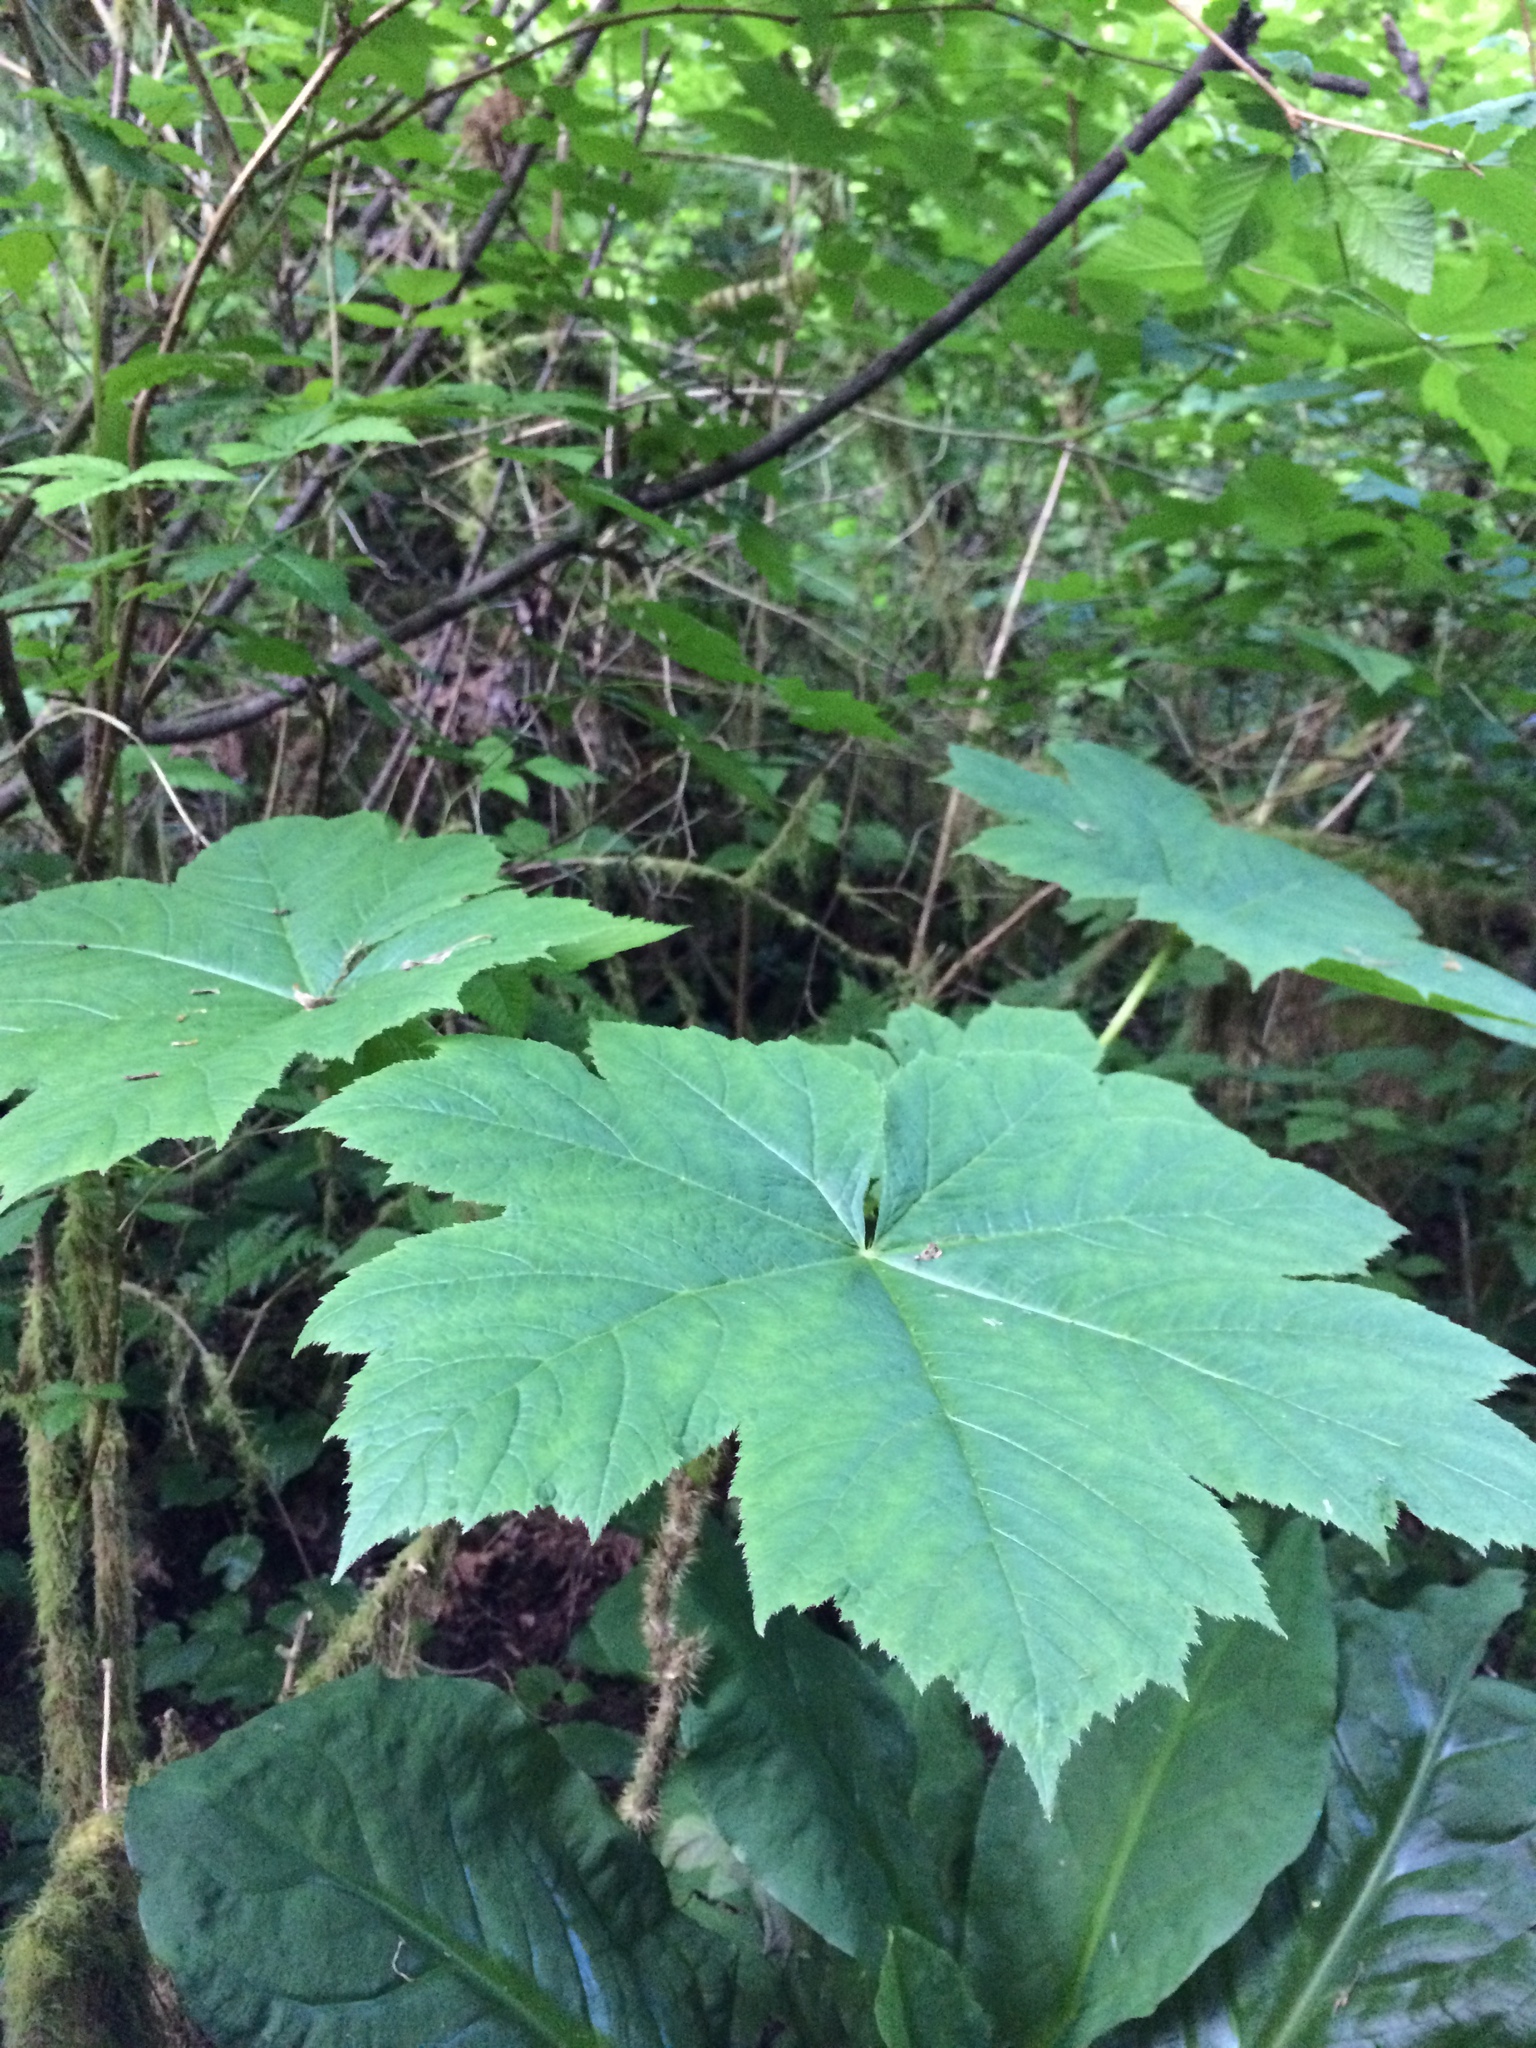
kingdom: Plantae
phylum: Tracheophyta
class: Magnoliopsida
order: Apiales
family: Araliaceae
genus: Oplopanax
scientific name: Oplopanax horridus
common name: Devil's walking-stick
